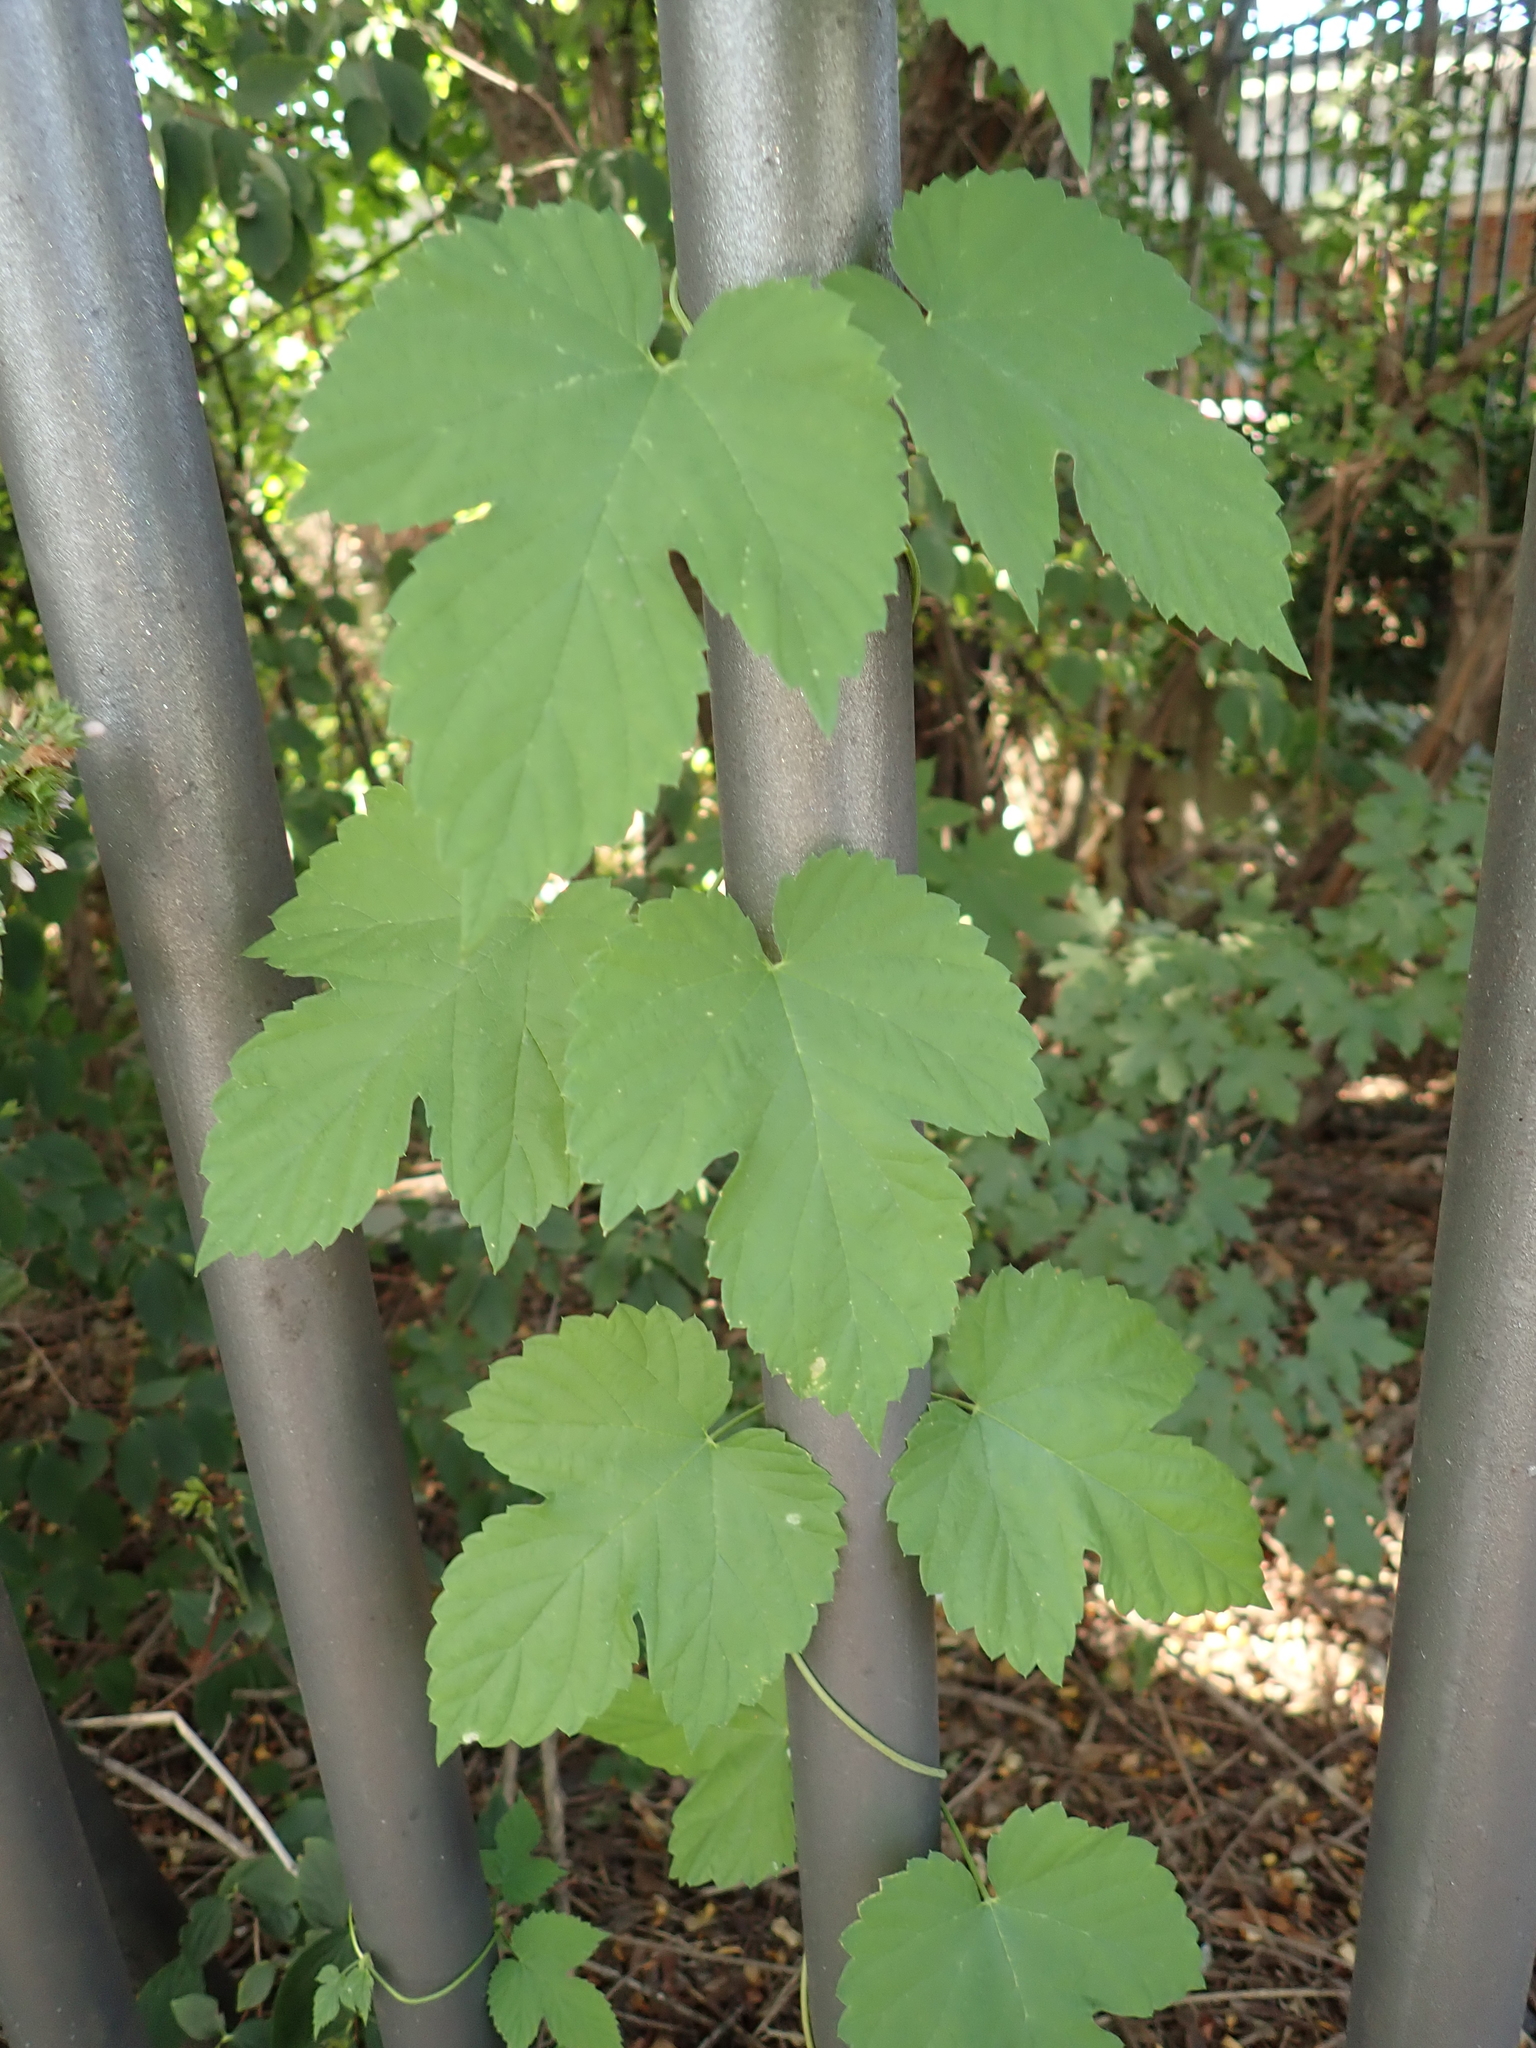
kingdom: Plantae
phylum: Tracheophyta
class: Magnoliopsida
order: Rosales
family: Cannabaceae
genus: Humulus
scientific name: Humulus lupulus
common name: Hop
